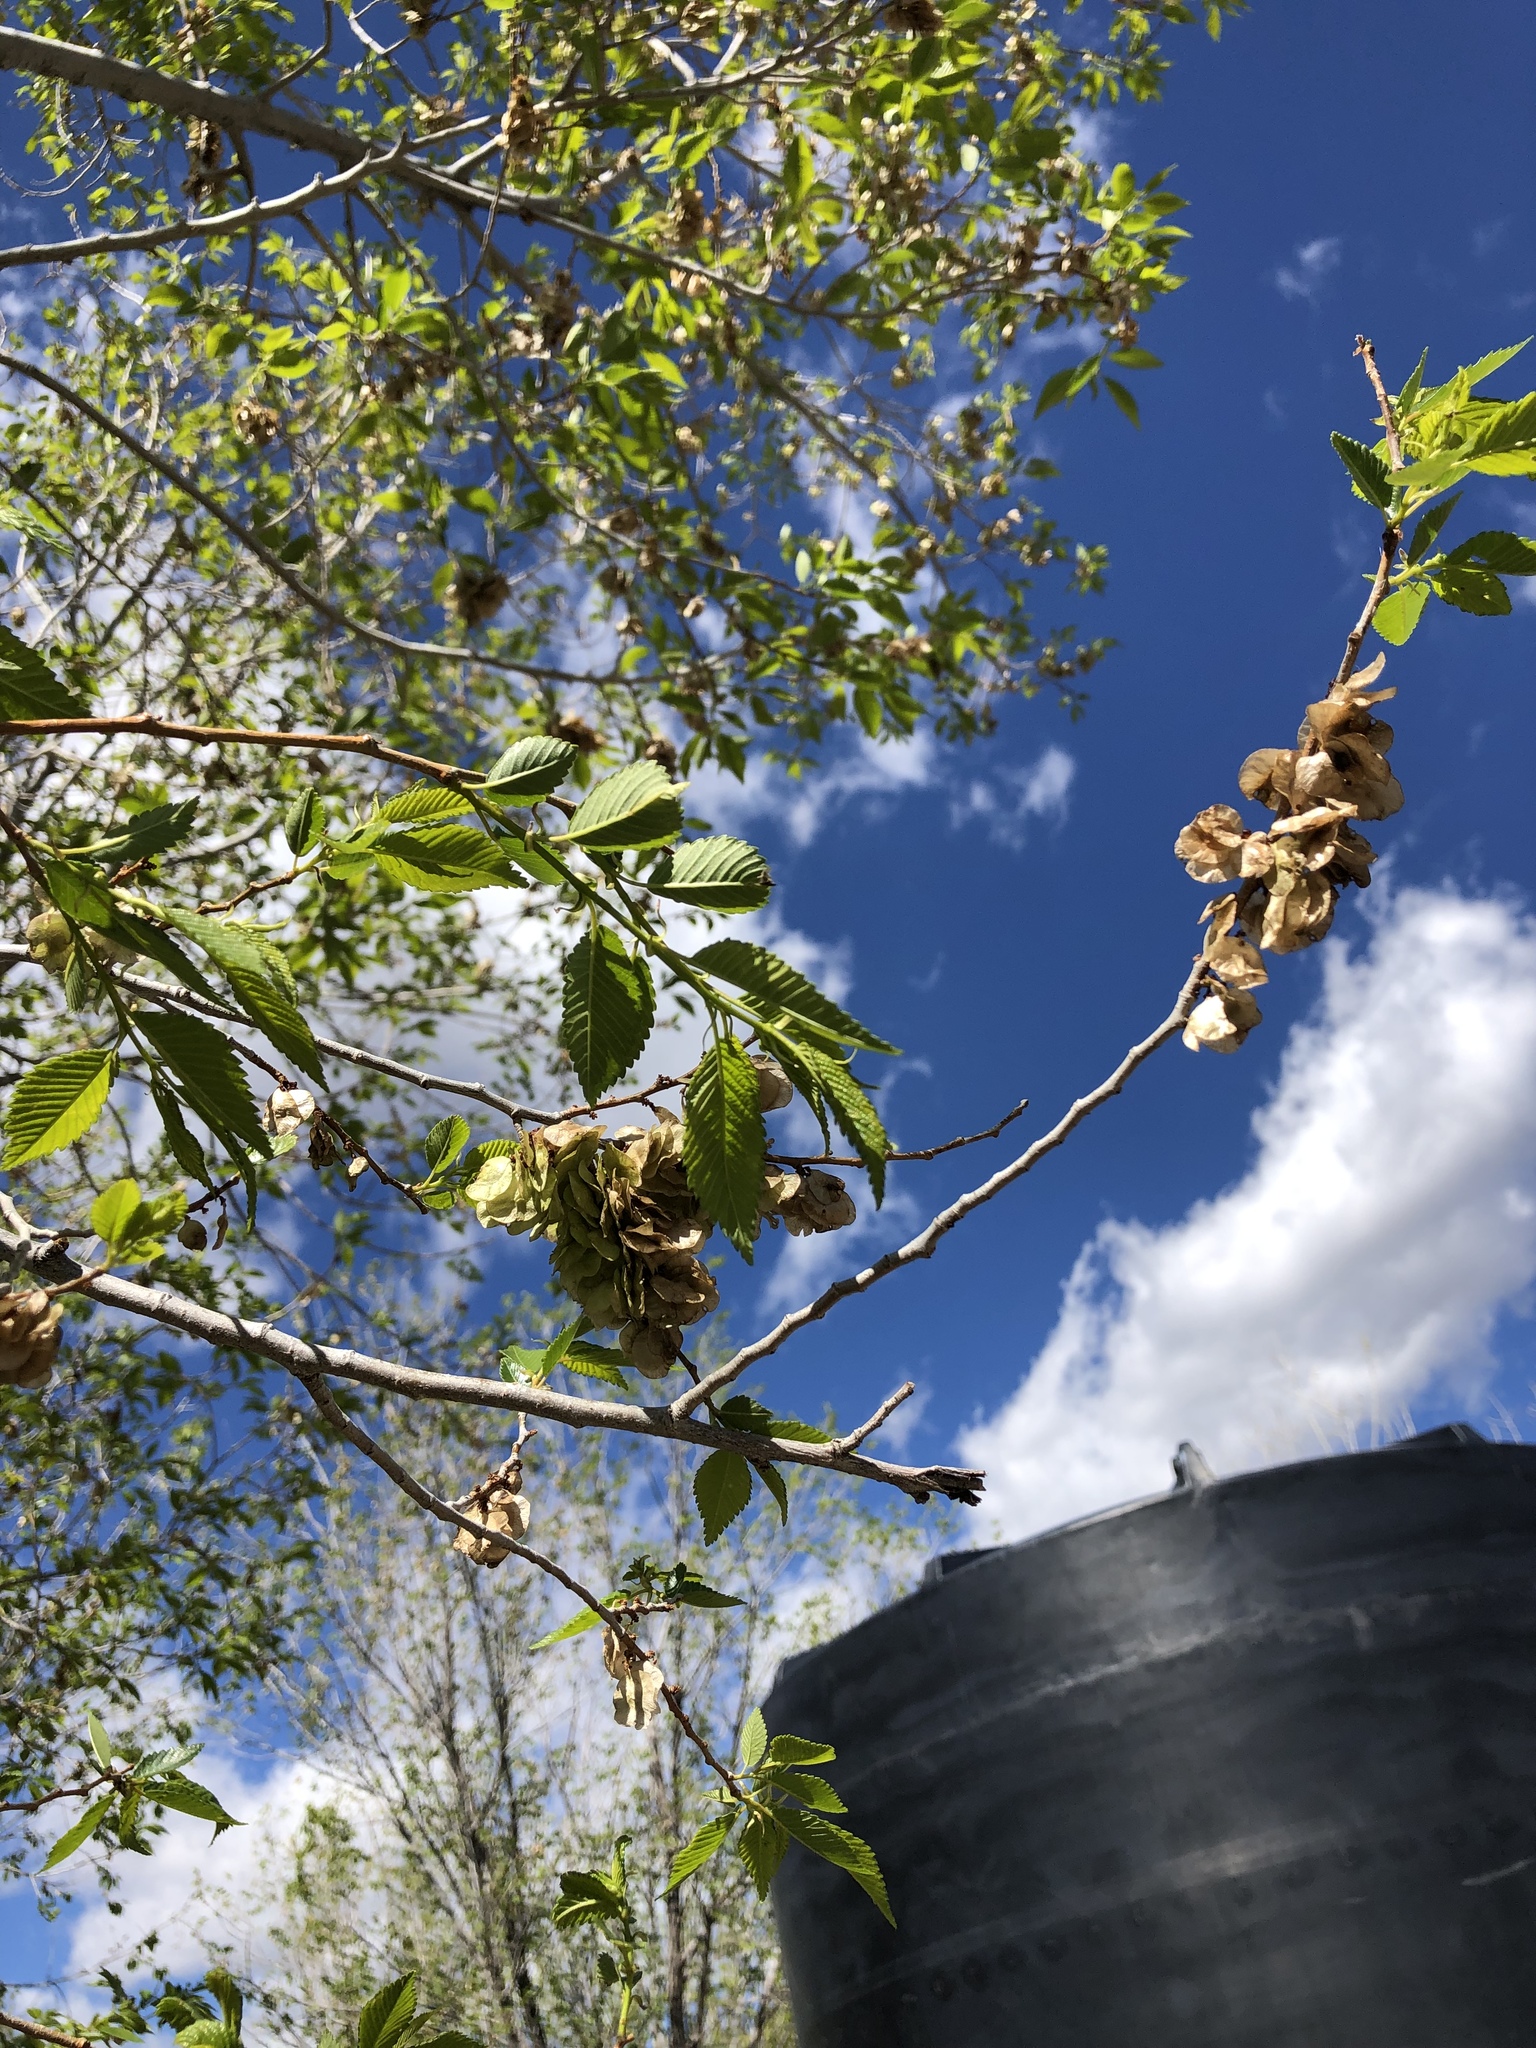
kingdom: Plantae
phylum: Tracheophyta
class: Magnoliopsida
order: Rosales
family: Ulmaceae
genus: Ulmus
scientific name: Ulmus pumila
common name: Siberian elm
